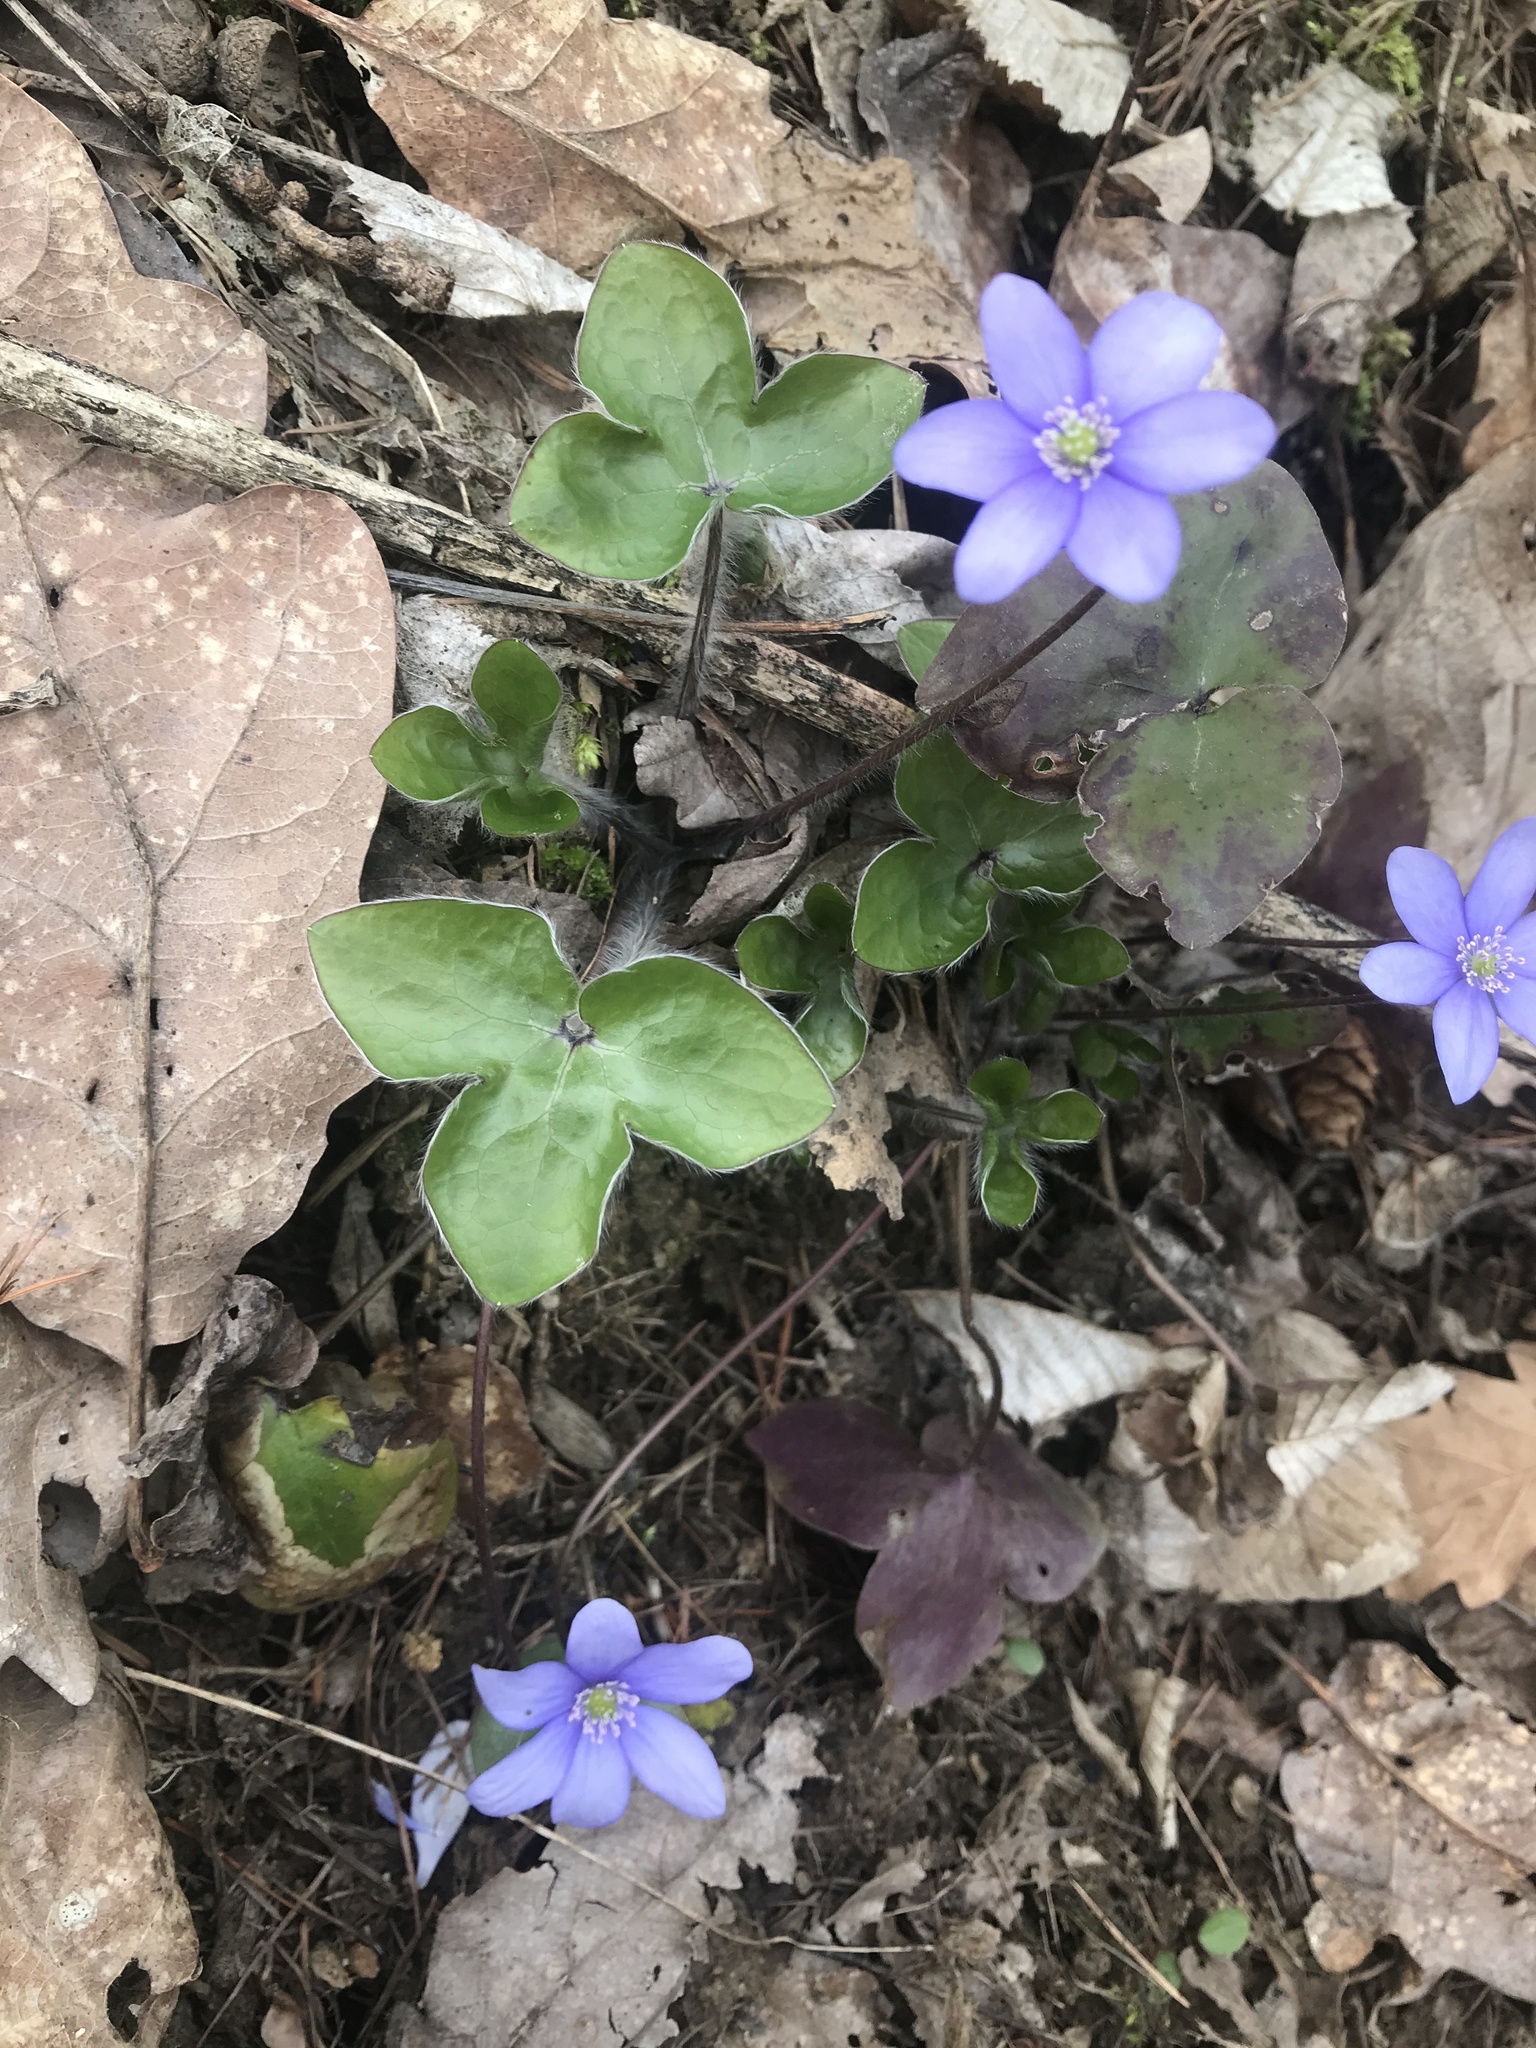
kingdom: Plantae
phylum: Tracheophyta
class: Magnoliopsida
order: Ranunculales
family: Ranunculaceae
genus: Hepatica
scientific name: Hepatica nobilis
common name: Liverleaf
